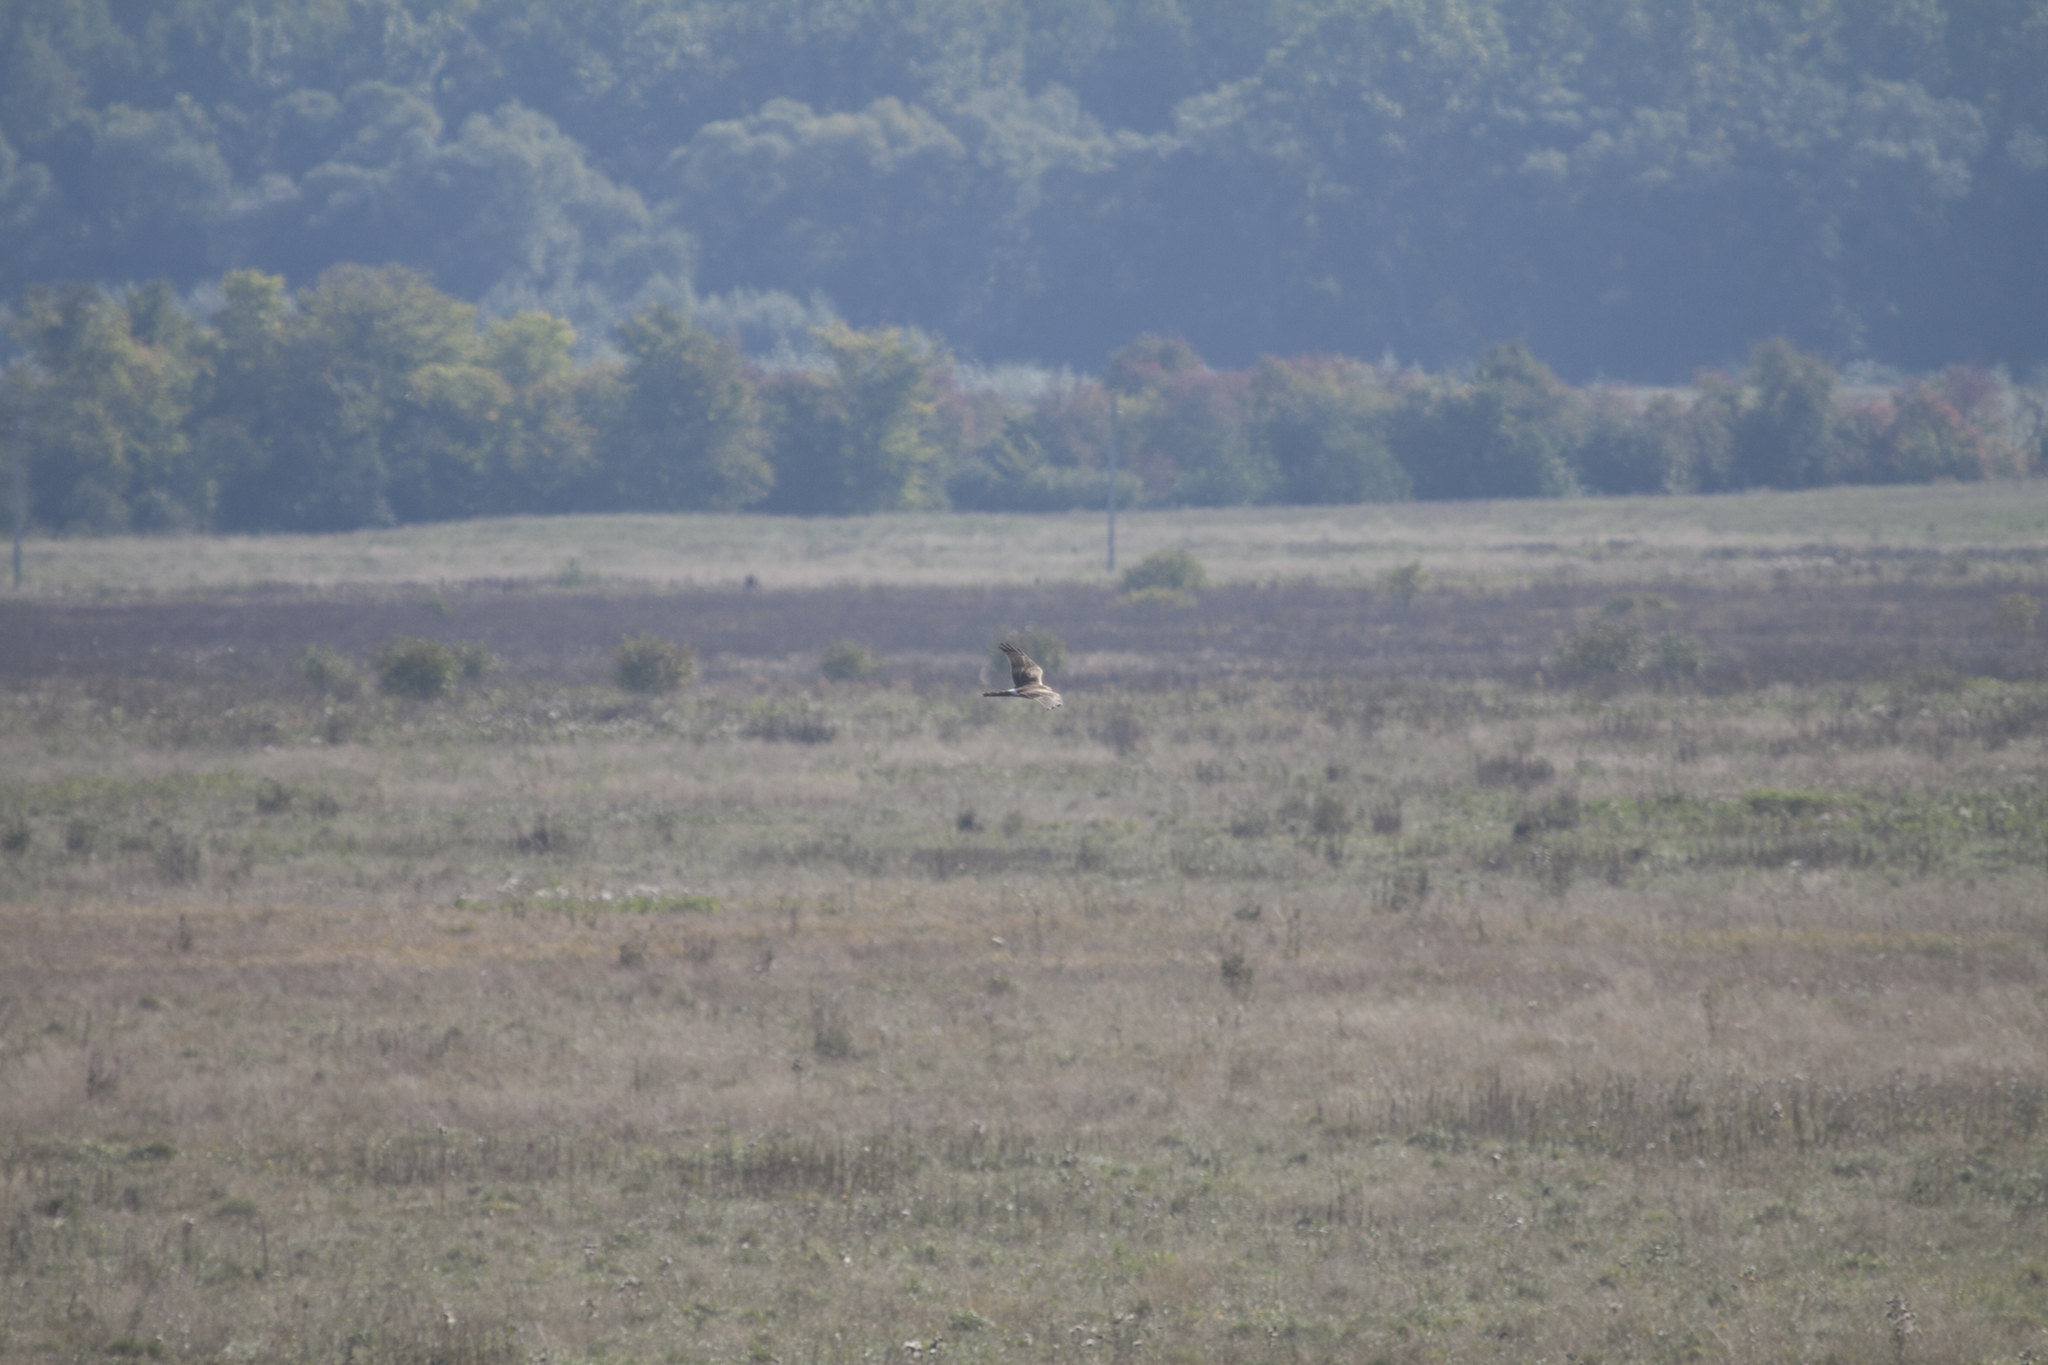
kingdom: Animalia
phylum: Chordata
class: Aves
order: Accipitriformes
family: Accipitridae
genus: Circus
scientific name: Circus macrourus
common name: Pallid harrier
